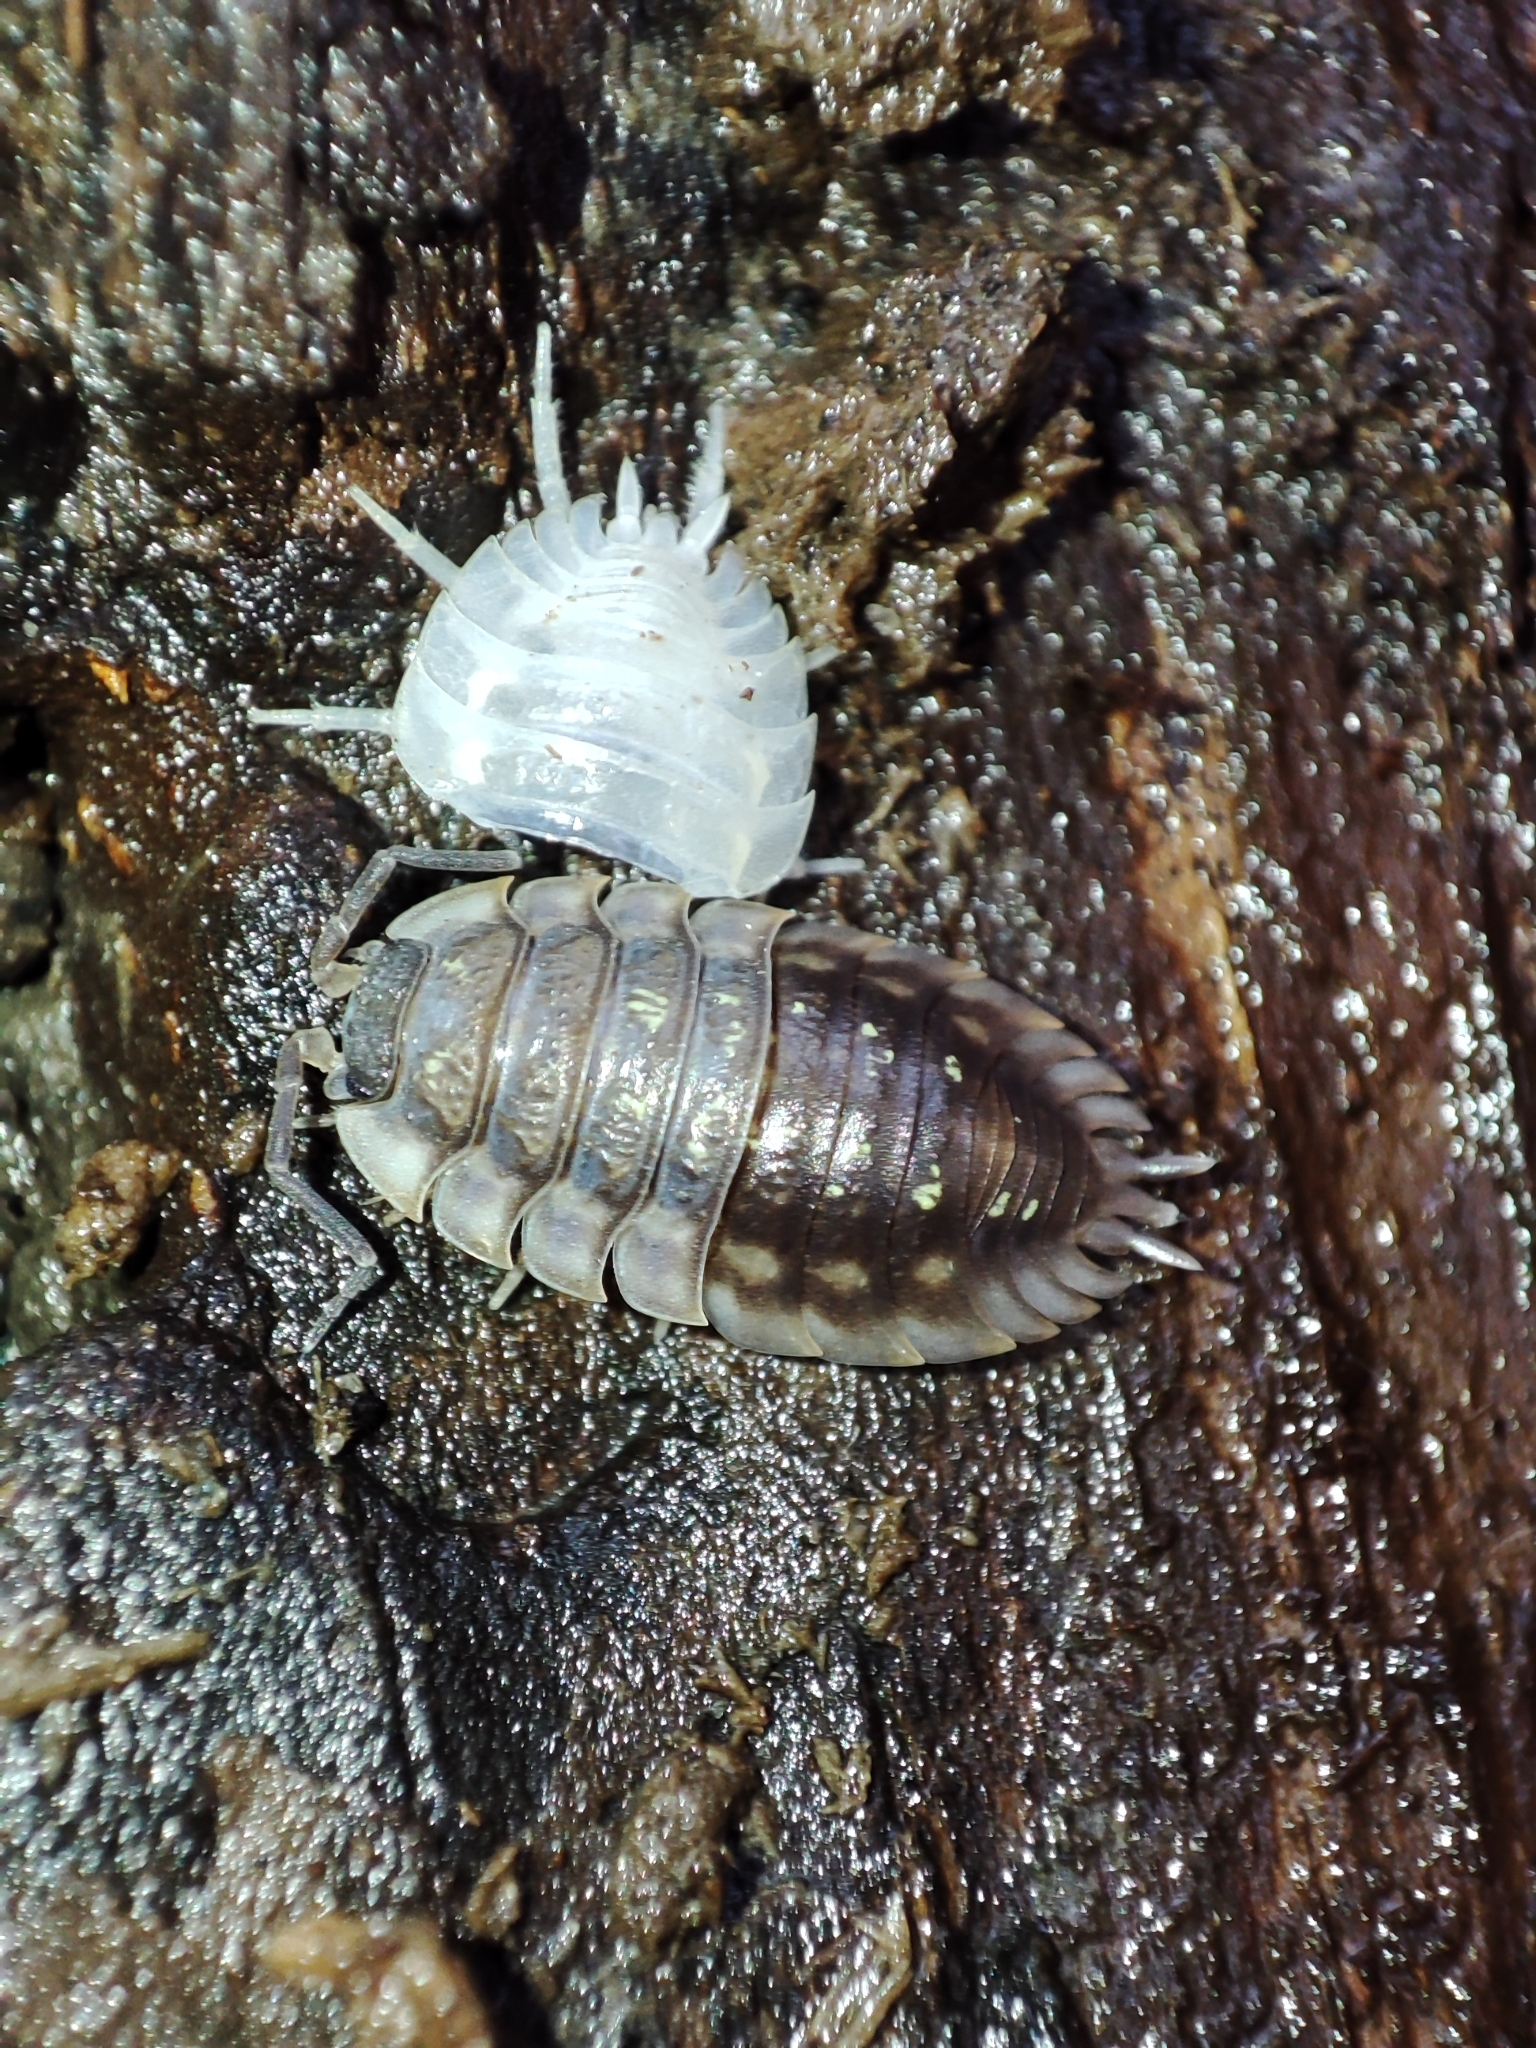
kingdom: Animalia
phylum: Arthropoda
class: Malacostraca
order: Isopoda
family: Oniscidae
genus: Oniscus
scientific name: Oniscus asellus
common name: Common shiny woodlouse
